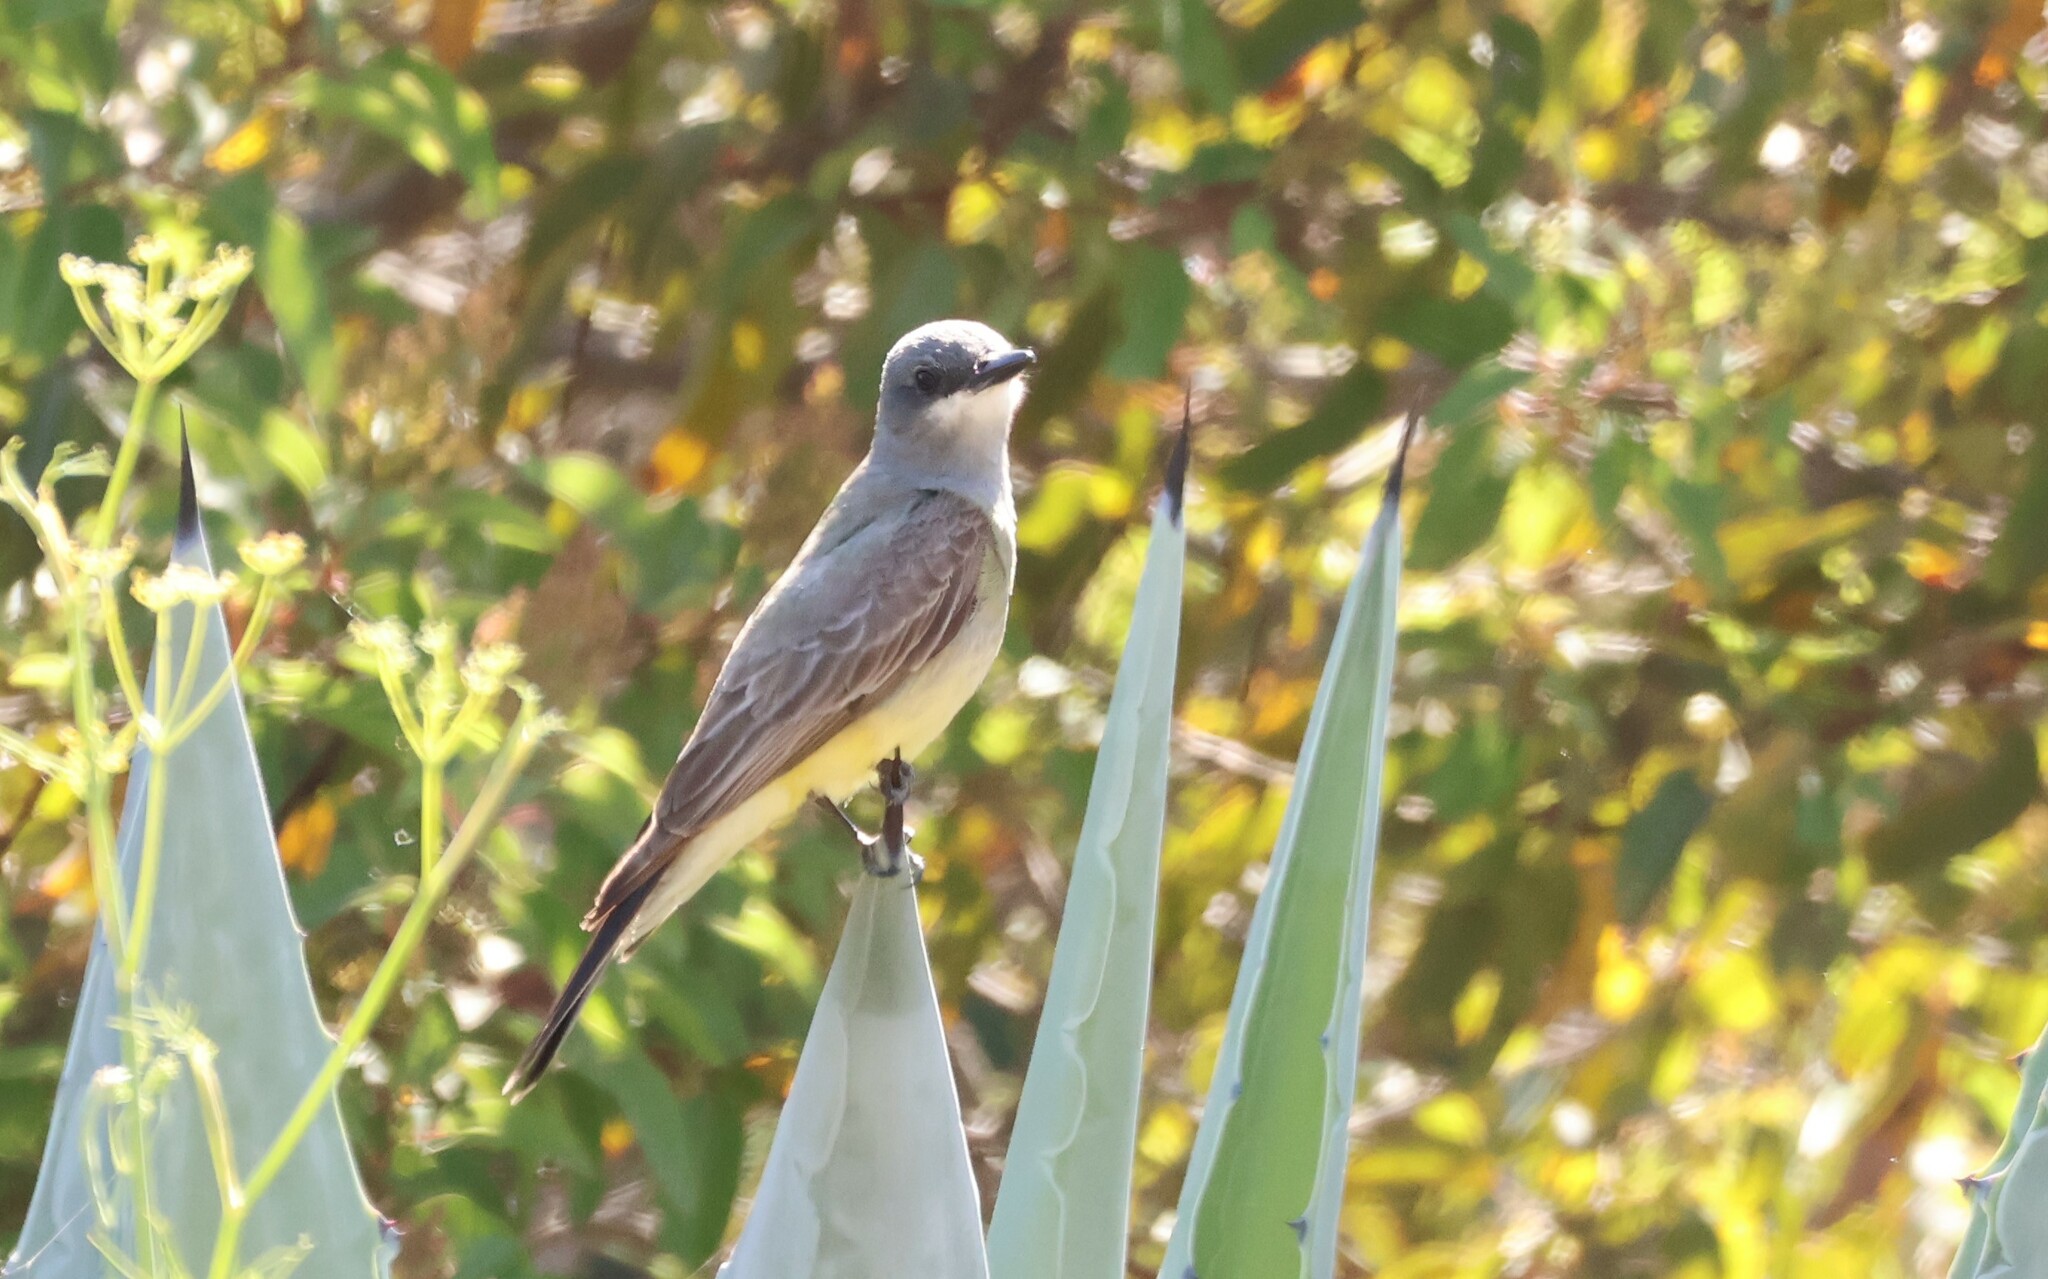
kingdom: Animalia
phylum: Chordata
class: Aves
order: Passeriformes
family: Tyrannidae
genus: Tyrannus
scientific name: Tyrannus vociferans
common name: Cassin's kingbird
